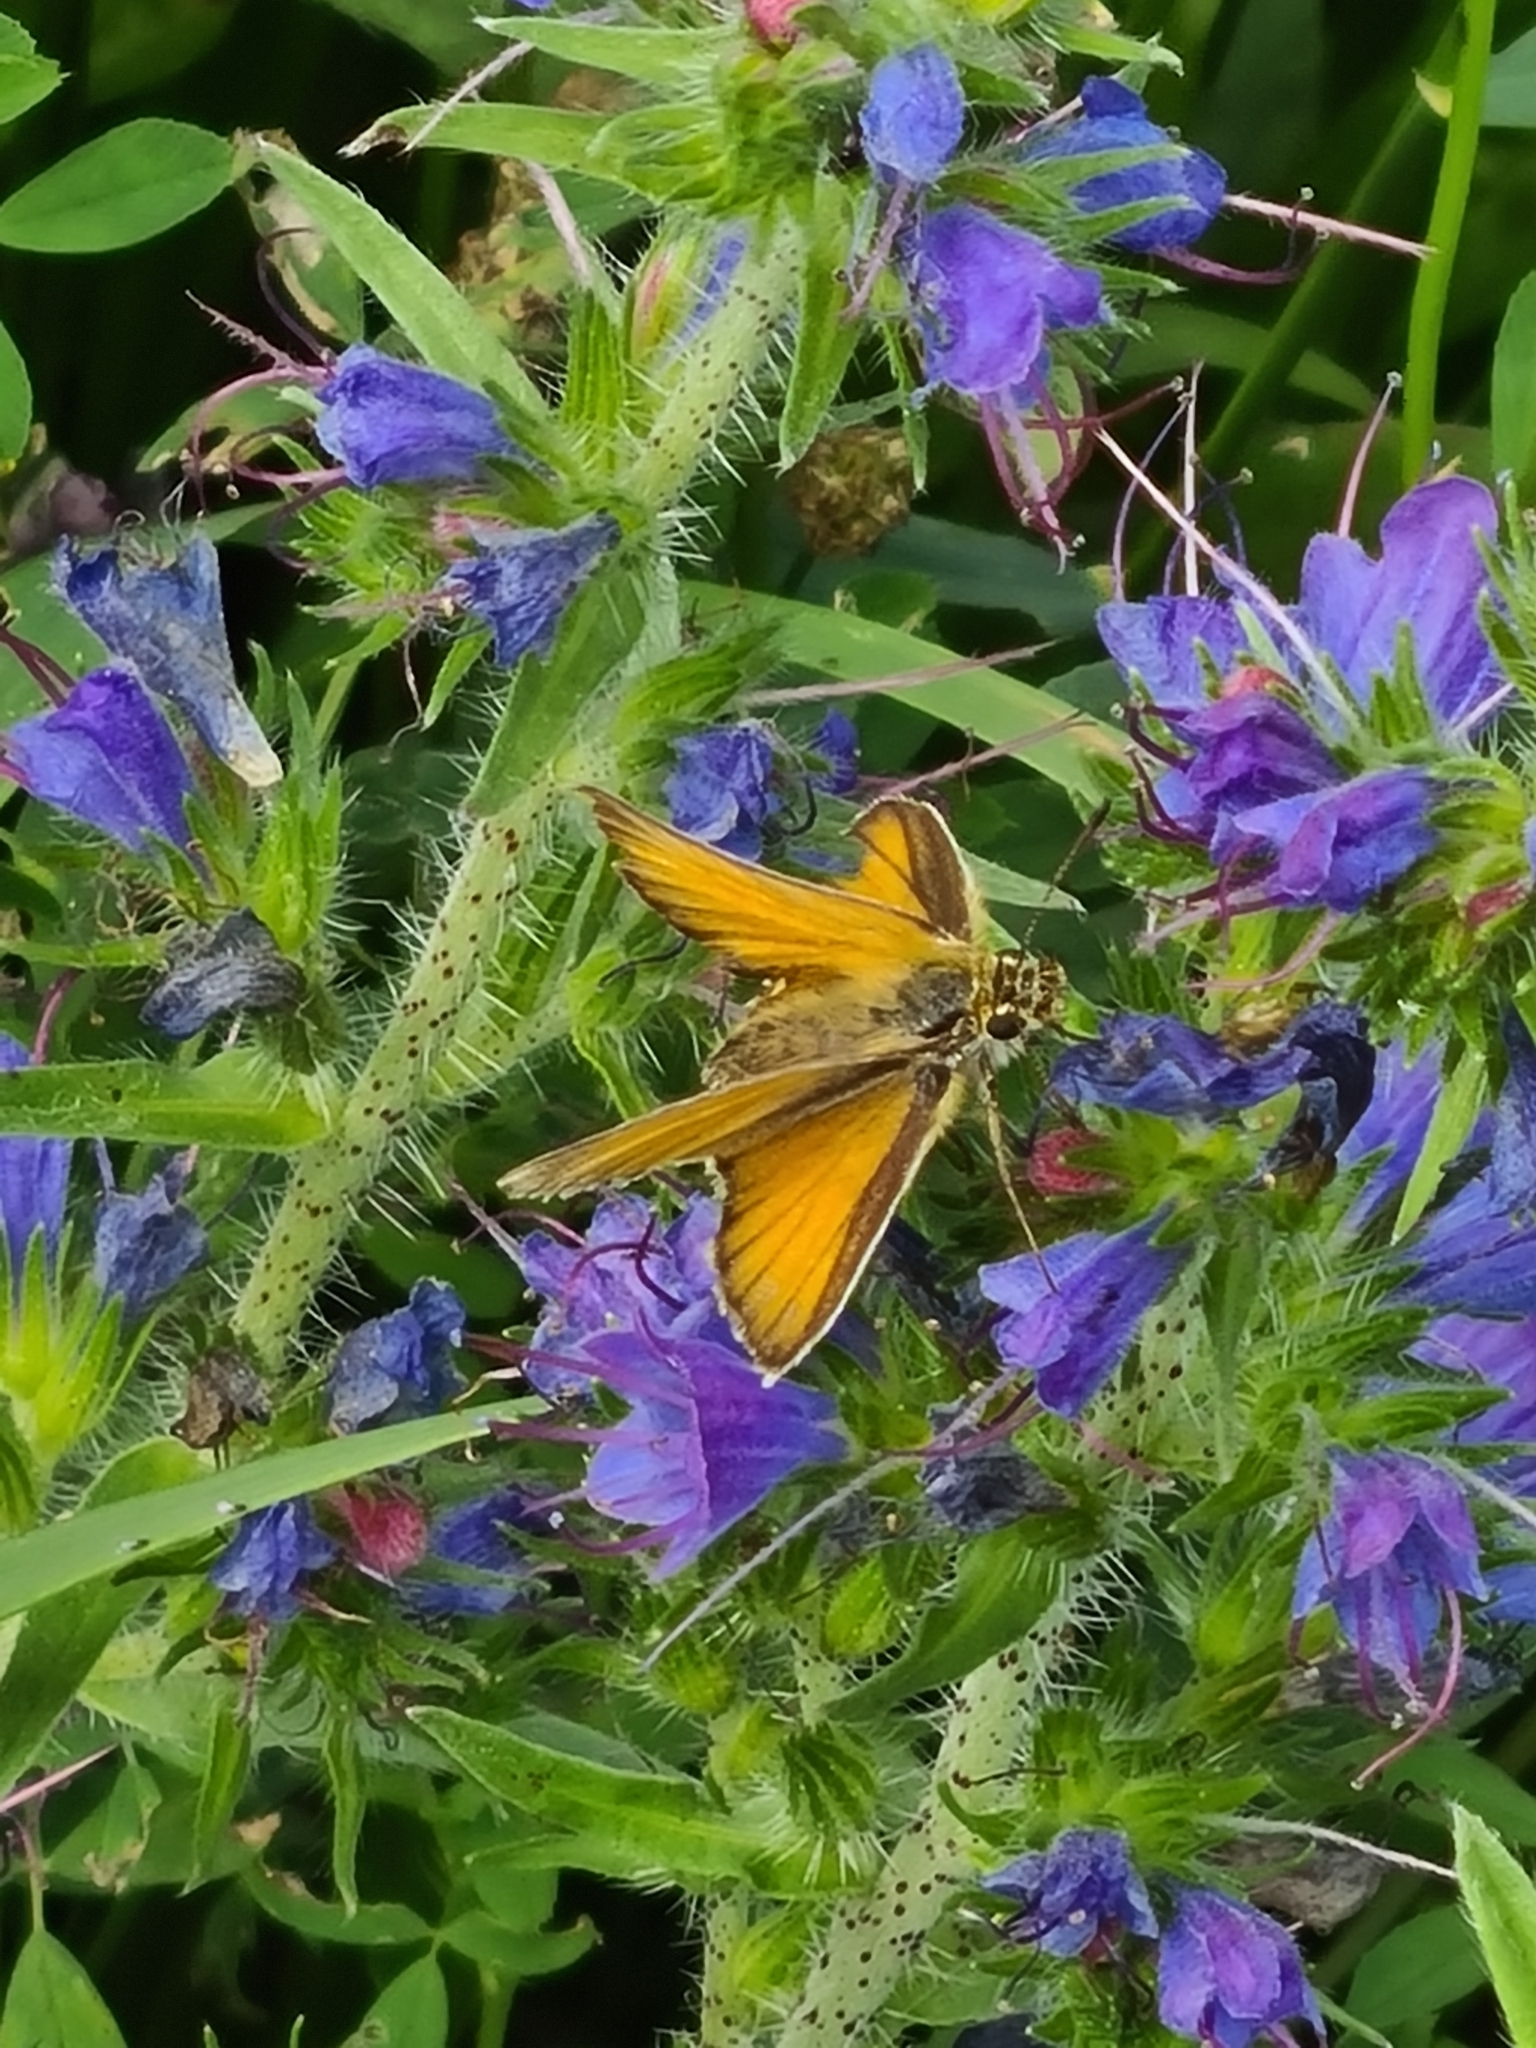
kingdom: Animalia
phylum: Arthropoda
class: Insecta
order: Lepidoptera
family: Hesperiidae
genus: Thymelicus
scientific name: Thymelicus lineola
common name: Essex skipper
